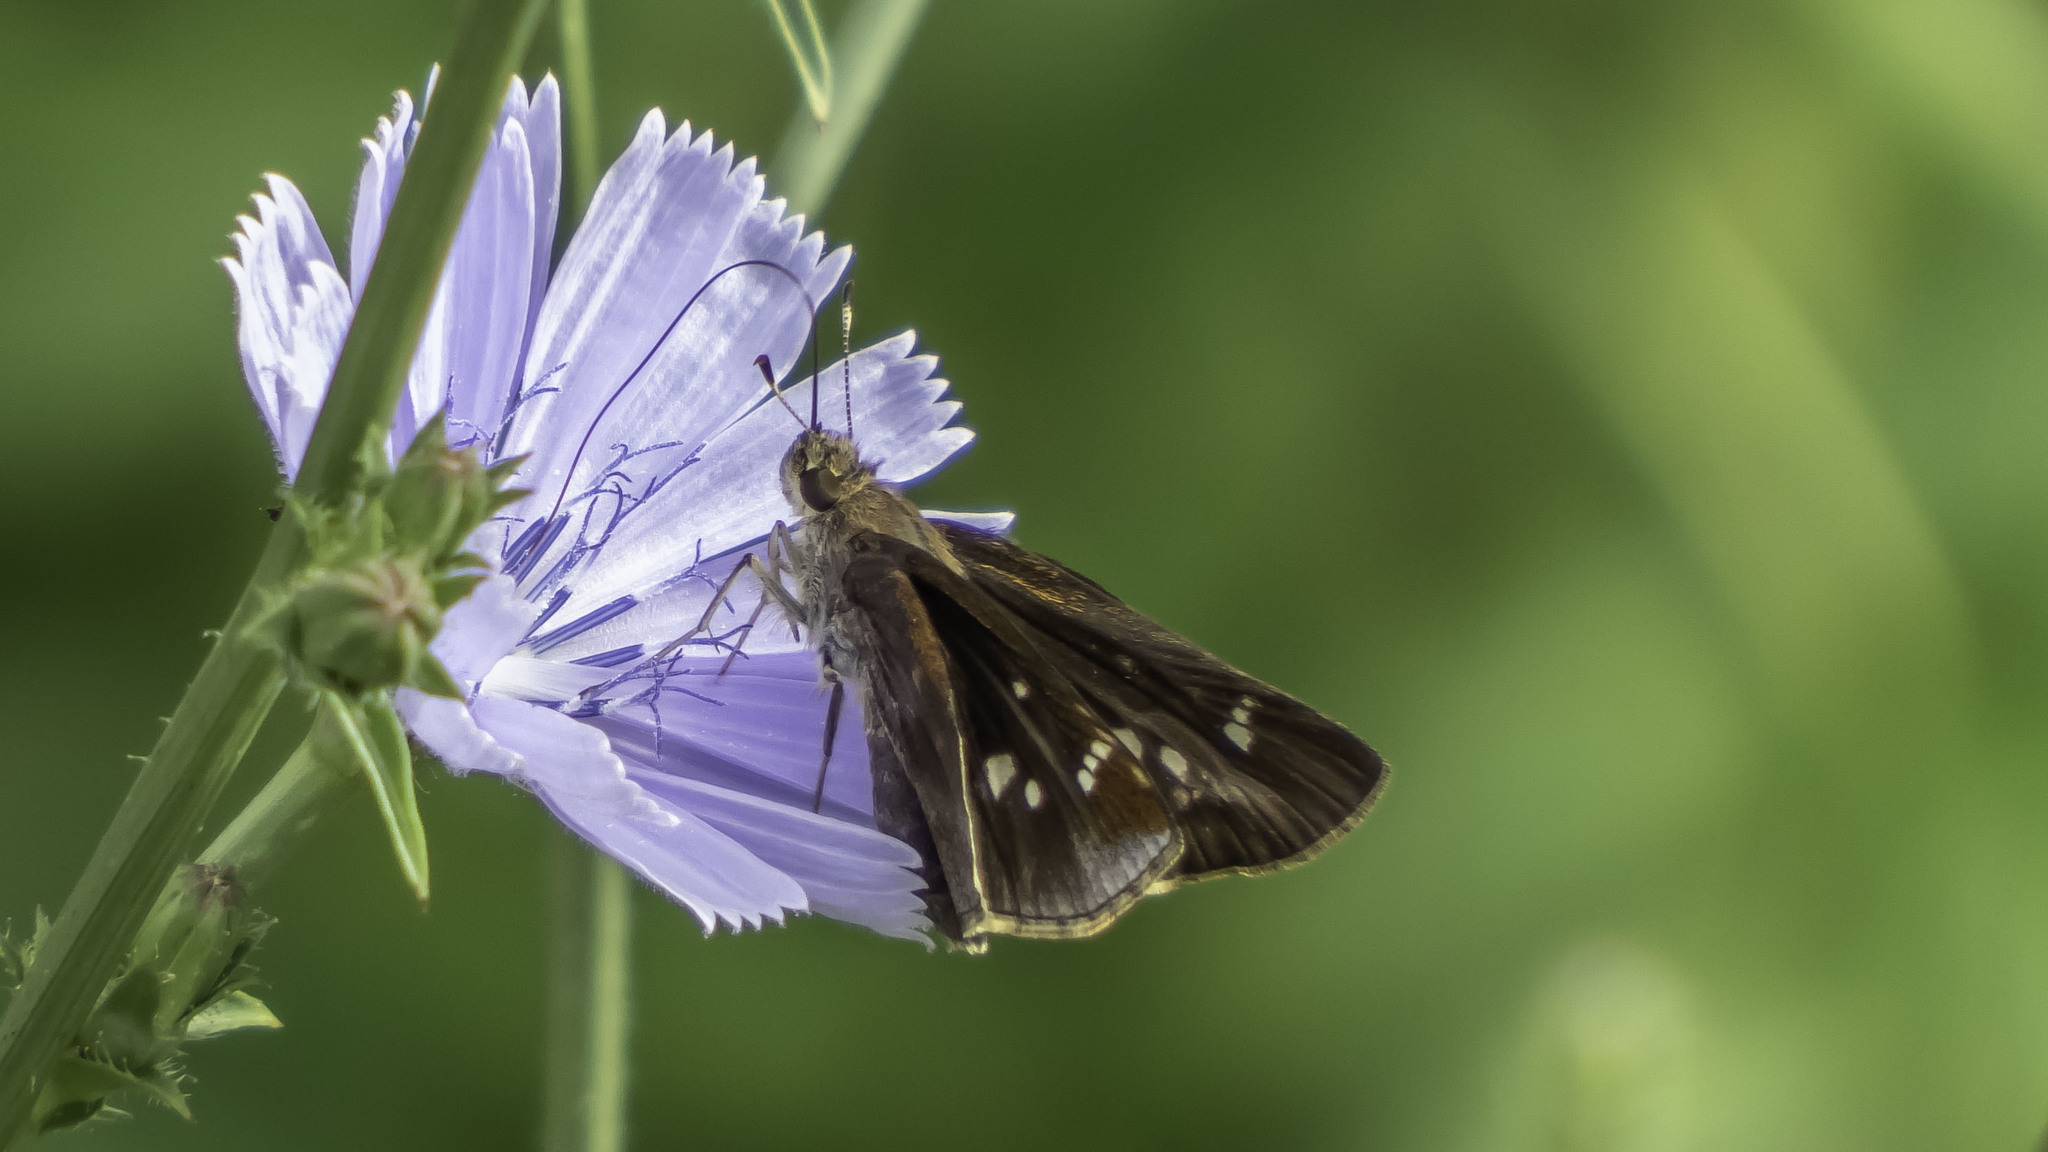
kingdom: Animalia
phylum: Arthropoda
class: Insecta
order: Lepidoptera
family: Hesperiidae
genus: Lerema
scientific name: Lerema accius
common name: Clouded skipper
